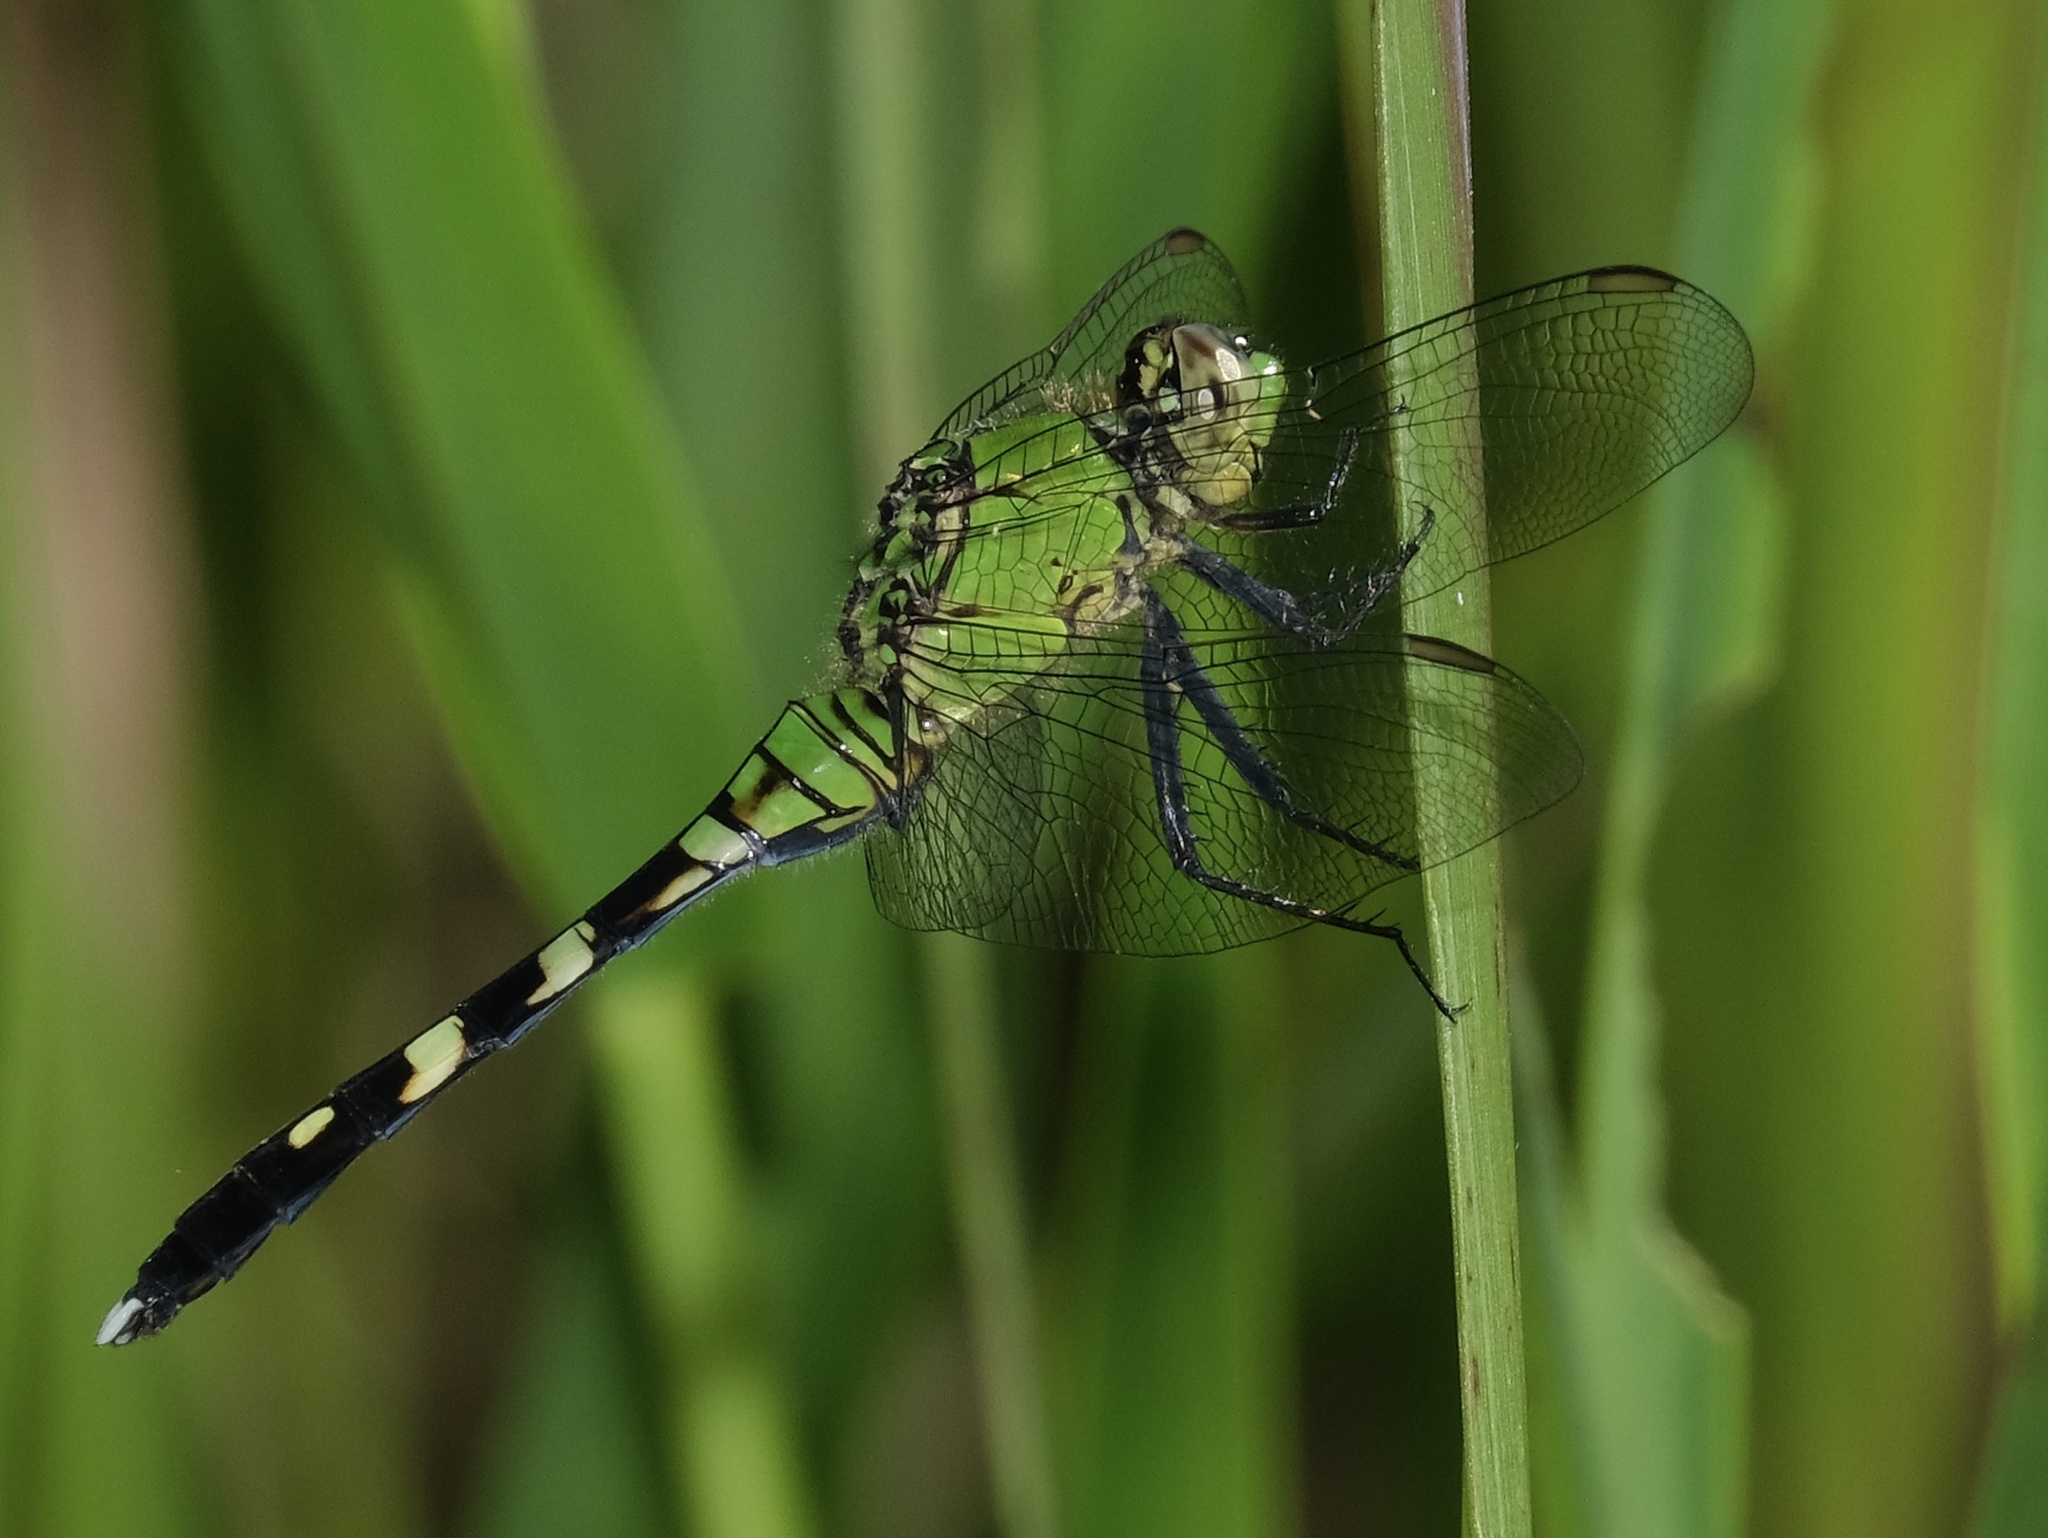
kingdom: Animalia
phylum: Arthropoda
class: Insecta
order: Odonata
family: Libellulidae
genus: Erythemis
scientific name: Erythemis simplicicollis
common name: Eastern pondhawk
